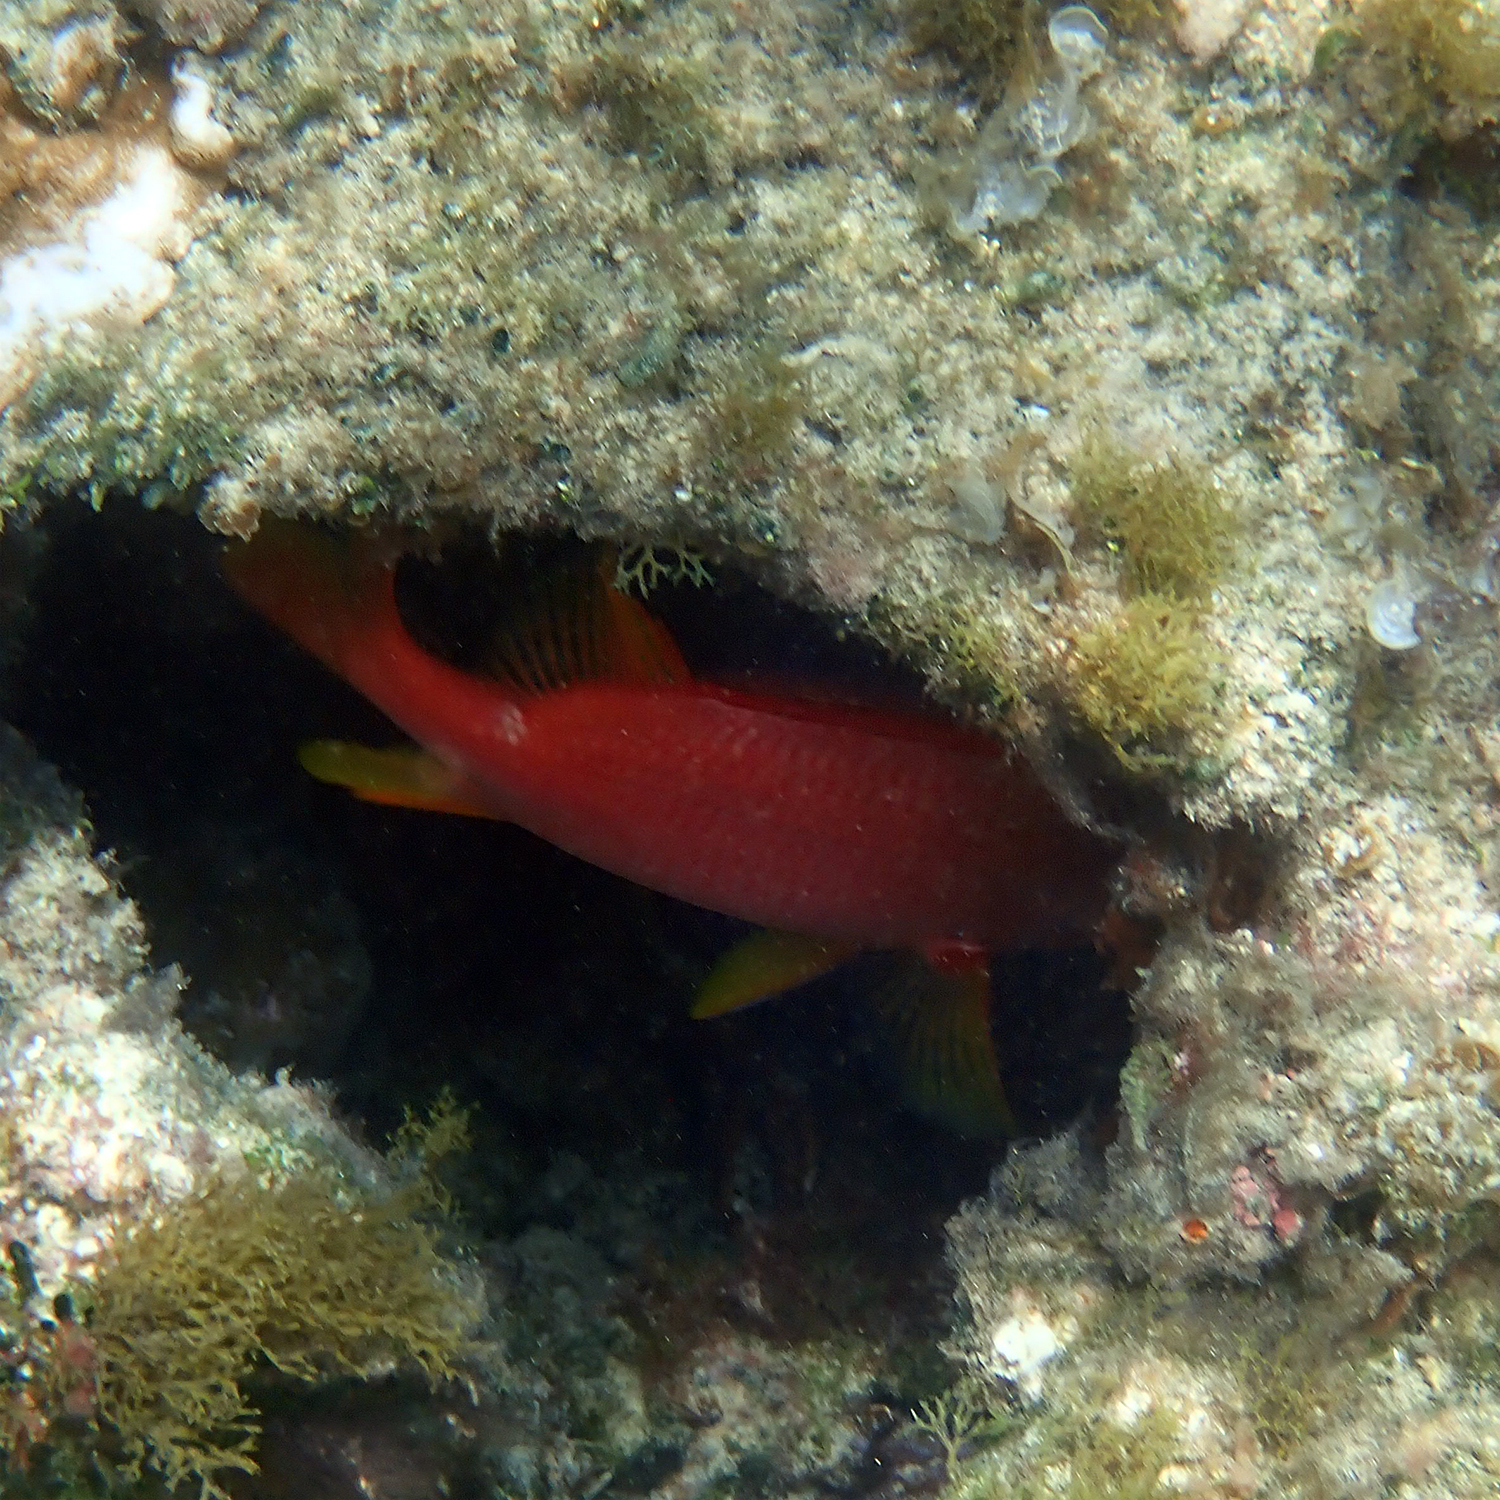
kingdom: Animalia
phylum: Chordata
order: Beryciformes
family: Holocentridae
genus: Sargocentron
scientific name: Sargocentron spiniferum
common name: Giant squirrelfish
